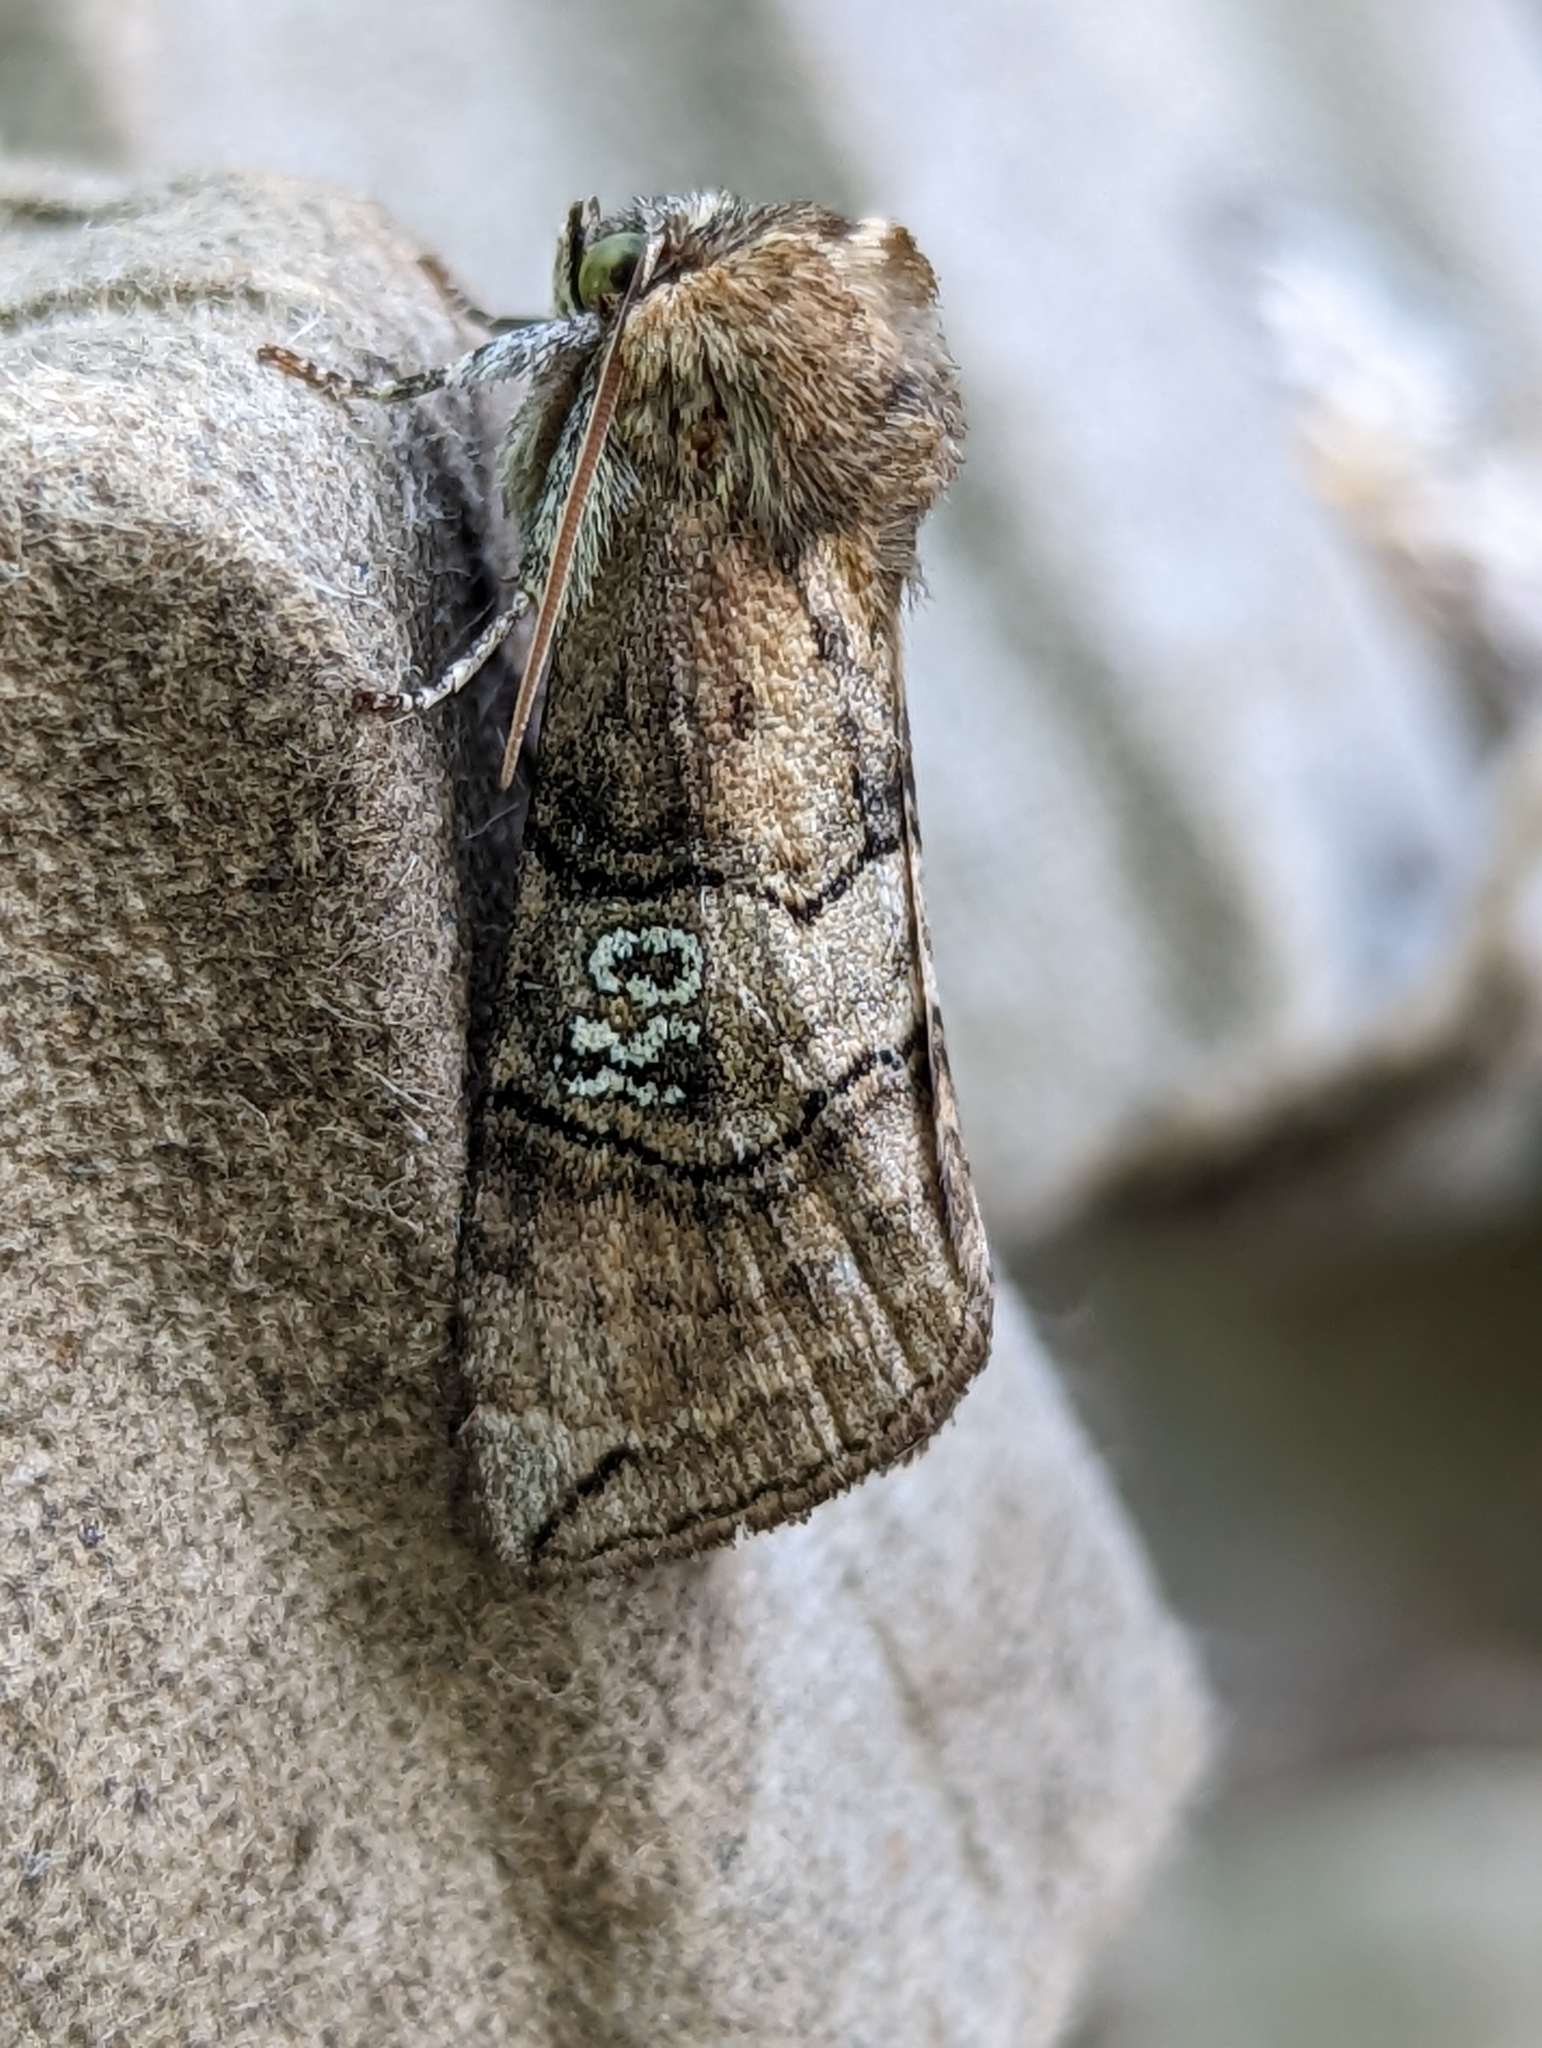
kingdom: Animalia
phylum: Arthropoda
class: Insecta
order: Lepidoptera
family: Drepanidae
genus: Tethea
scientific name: Tethea ocularis
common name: Figure of eighty
